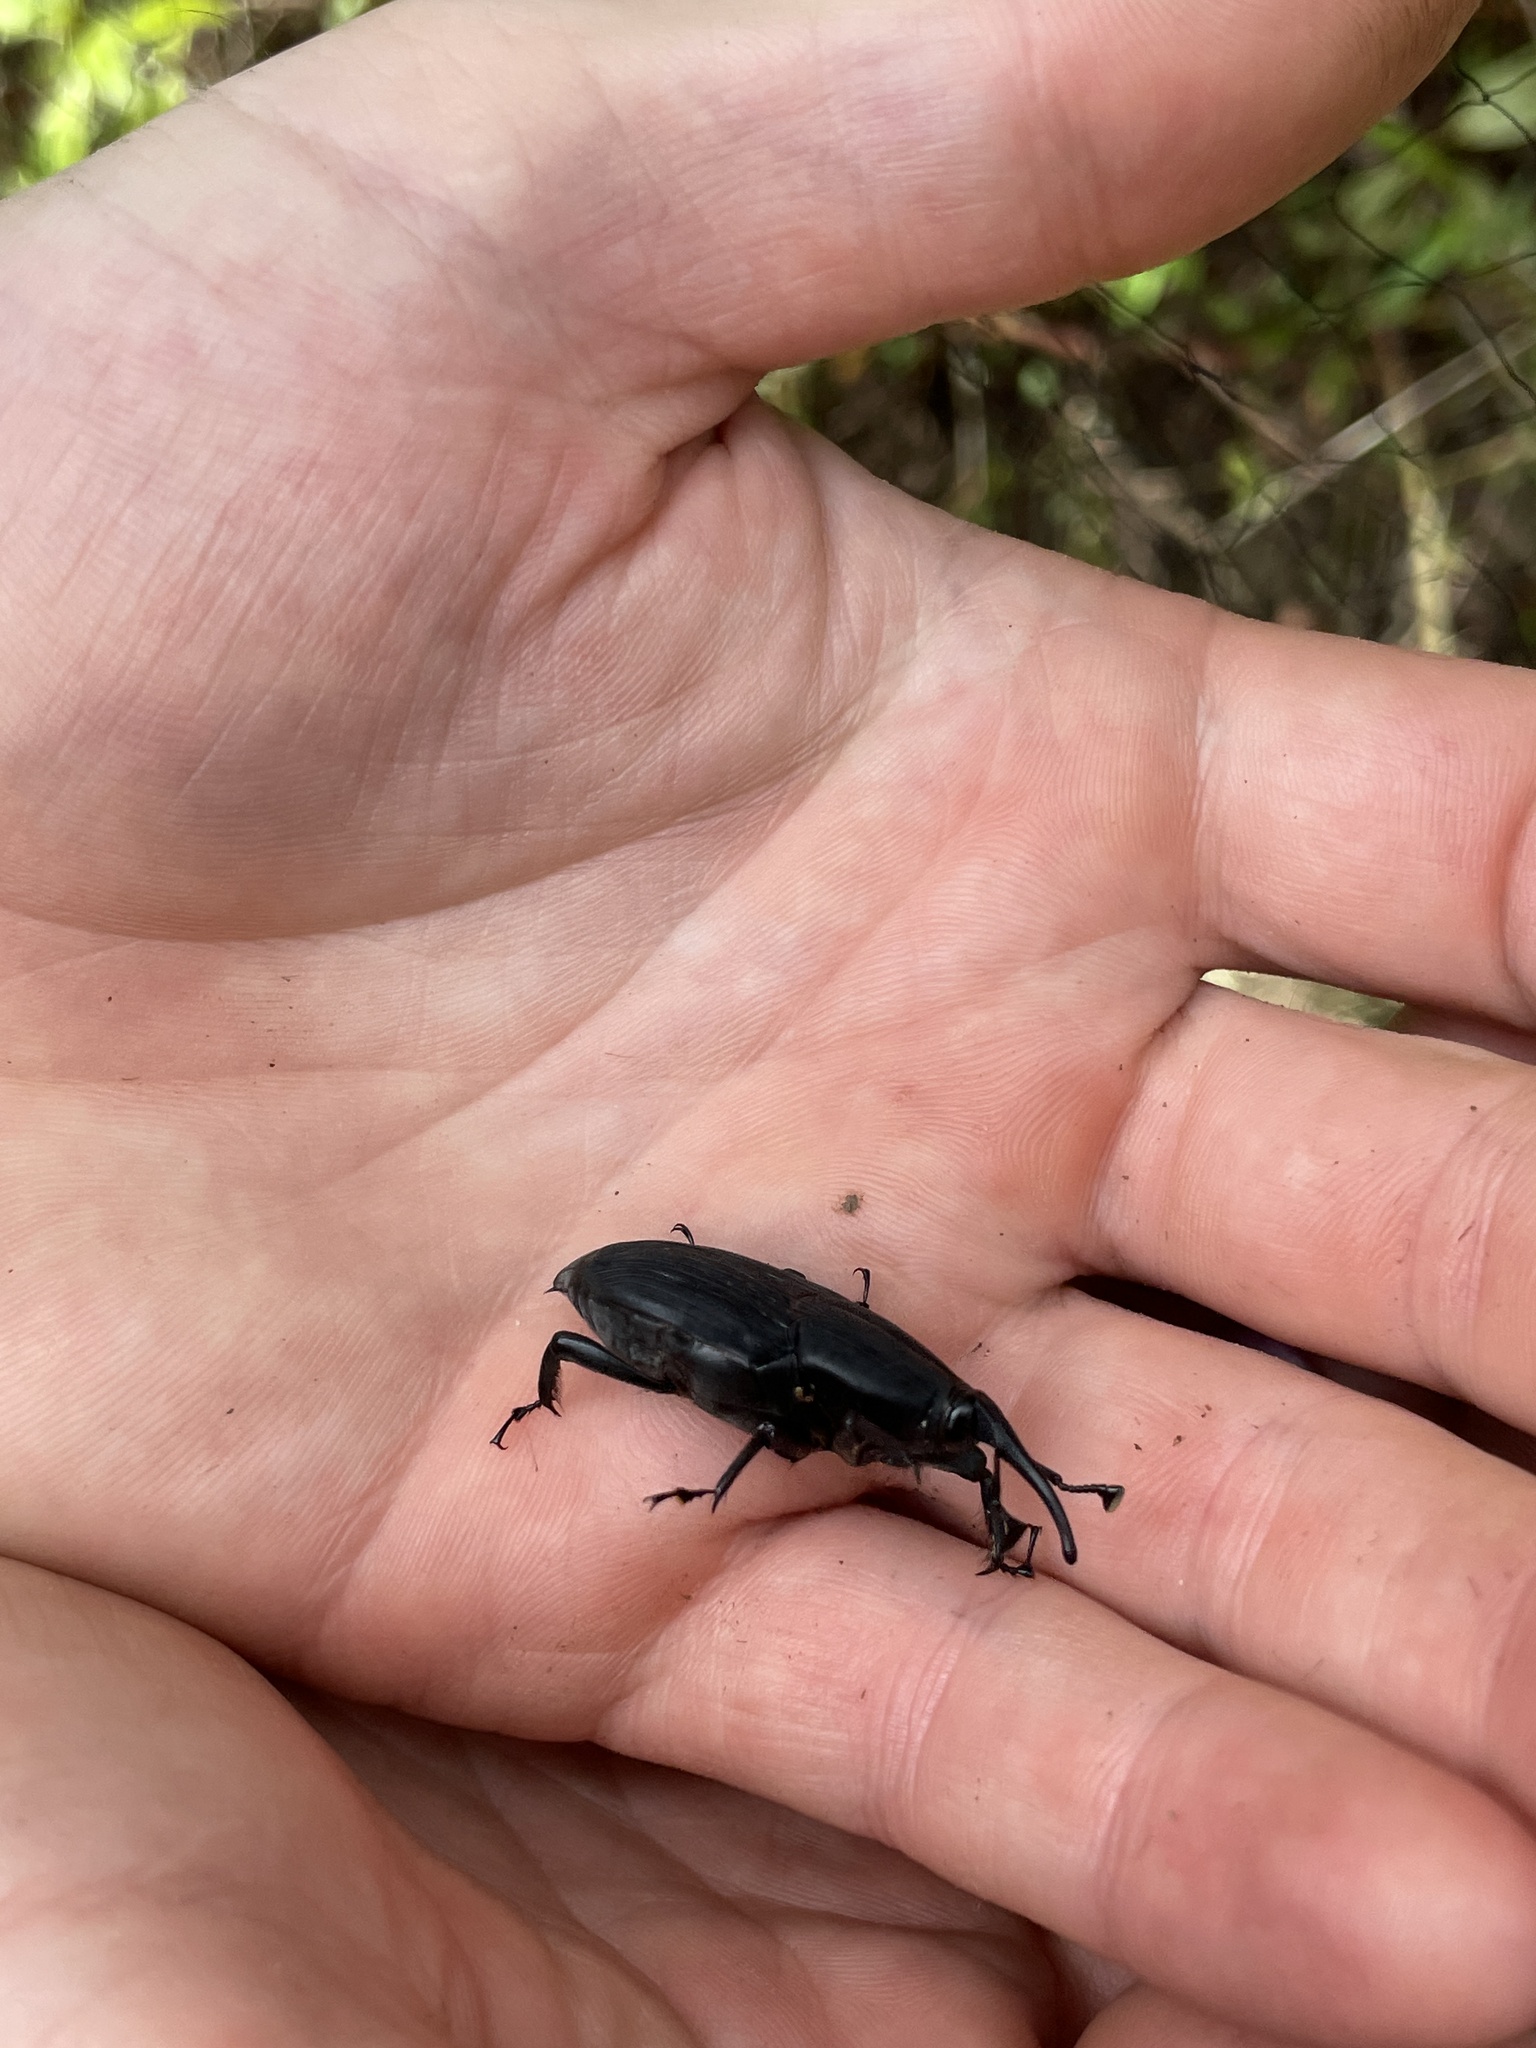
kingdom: Animalia
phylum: Arthropoda
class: Insecta
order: Coleoptera
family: Dryophthoridae
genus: Rhynchophorus
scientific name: Rhynchophorus palmarum
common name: Palm weevil
